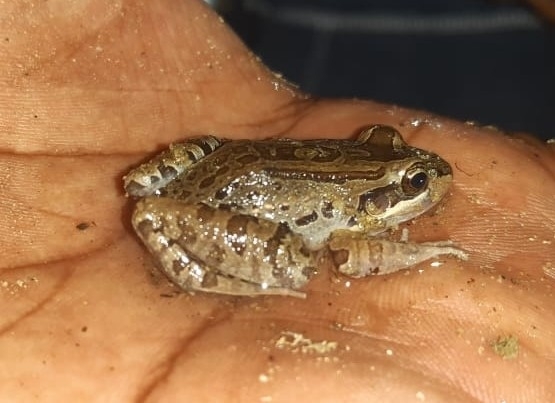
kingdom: Animalia
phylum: Chordata
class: Amphibia
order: Anura
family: Leptodactylidae
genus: Leptodactylus
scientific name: Leptodactylus insularum
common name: San miguel island frog
